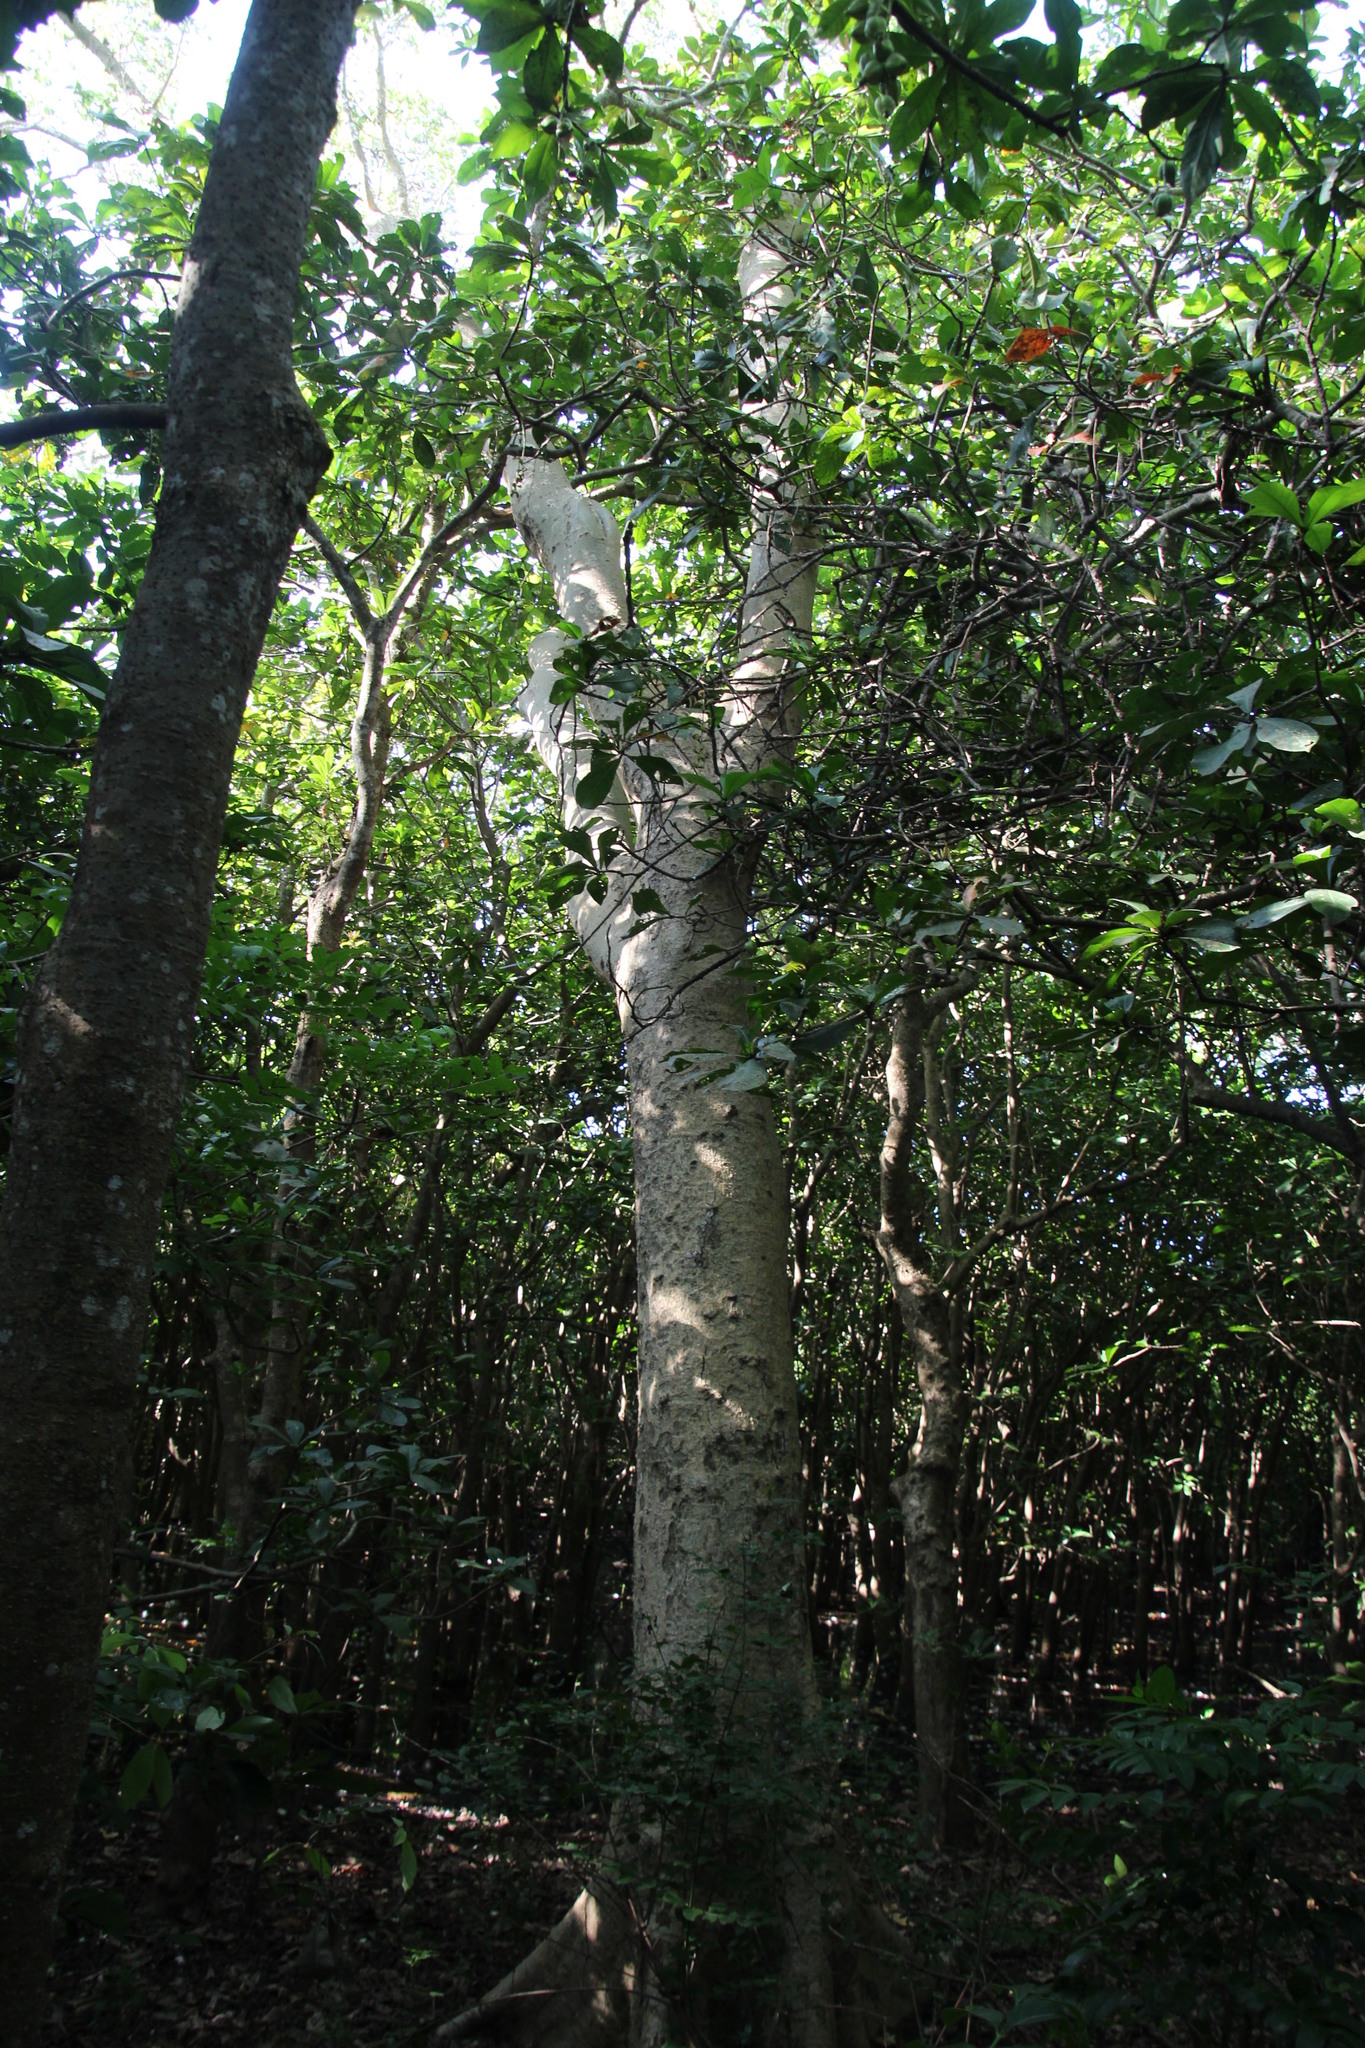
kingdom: Plantae
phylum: Tracheophyta
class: Magnoliopsida
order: Rosales
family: Moraceae
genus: Ficus
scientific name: Ficus sycomorus
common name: Sycomore
